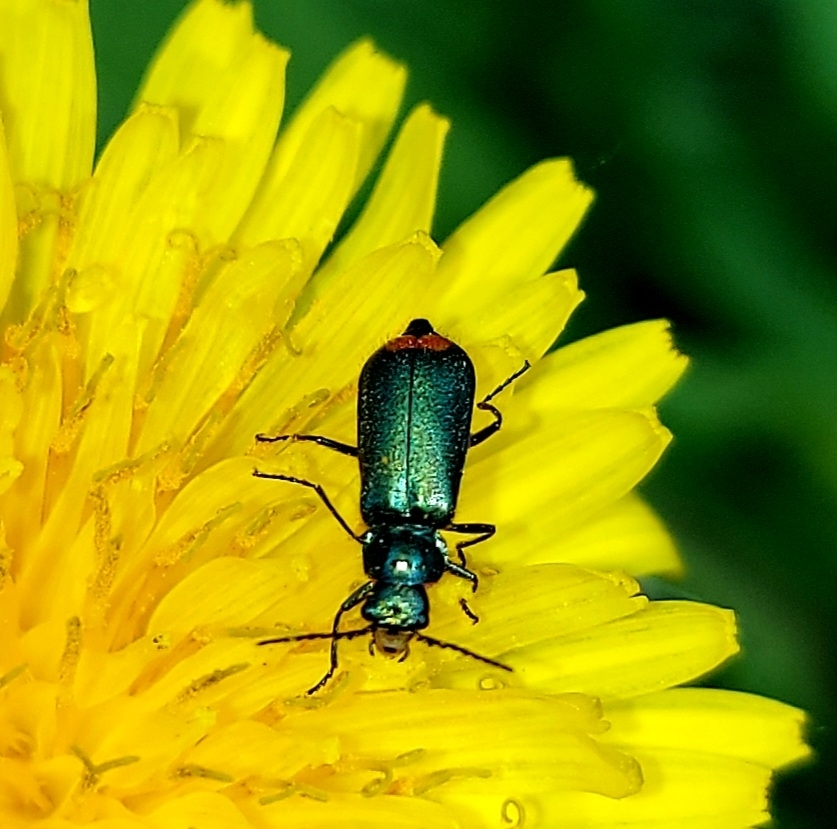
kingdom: Animalia
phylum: Arthropoda
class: Insecta
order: Coleoptera
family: Melyridae
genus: Malachius
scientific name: Malachius bipustulatus
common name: Malachite beetle
